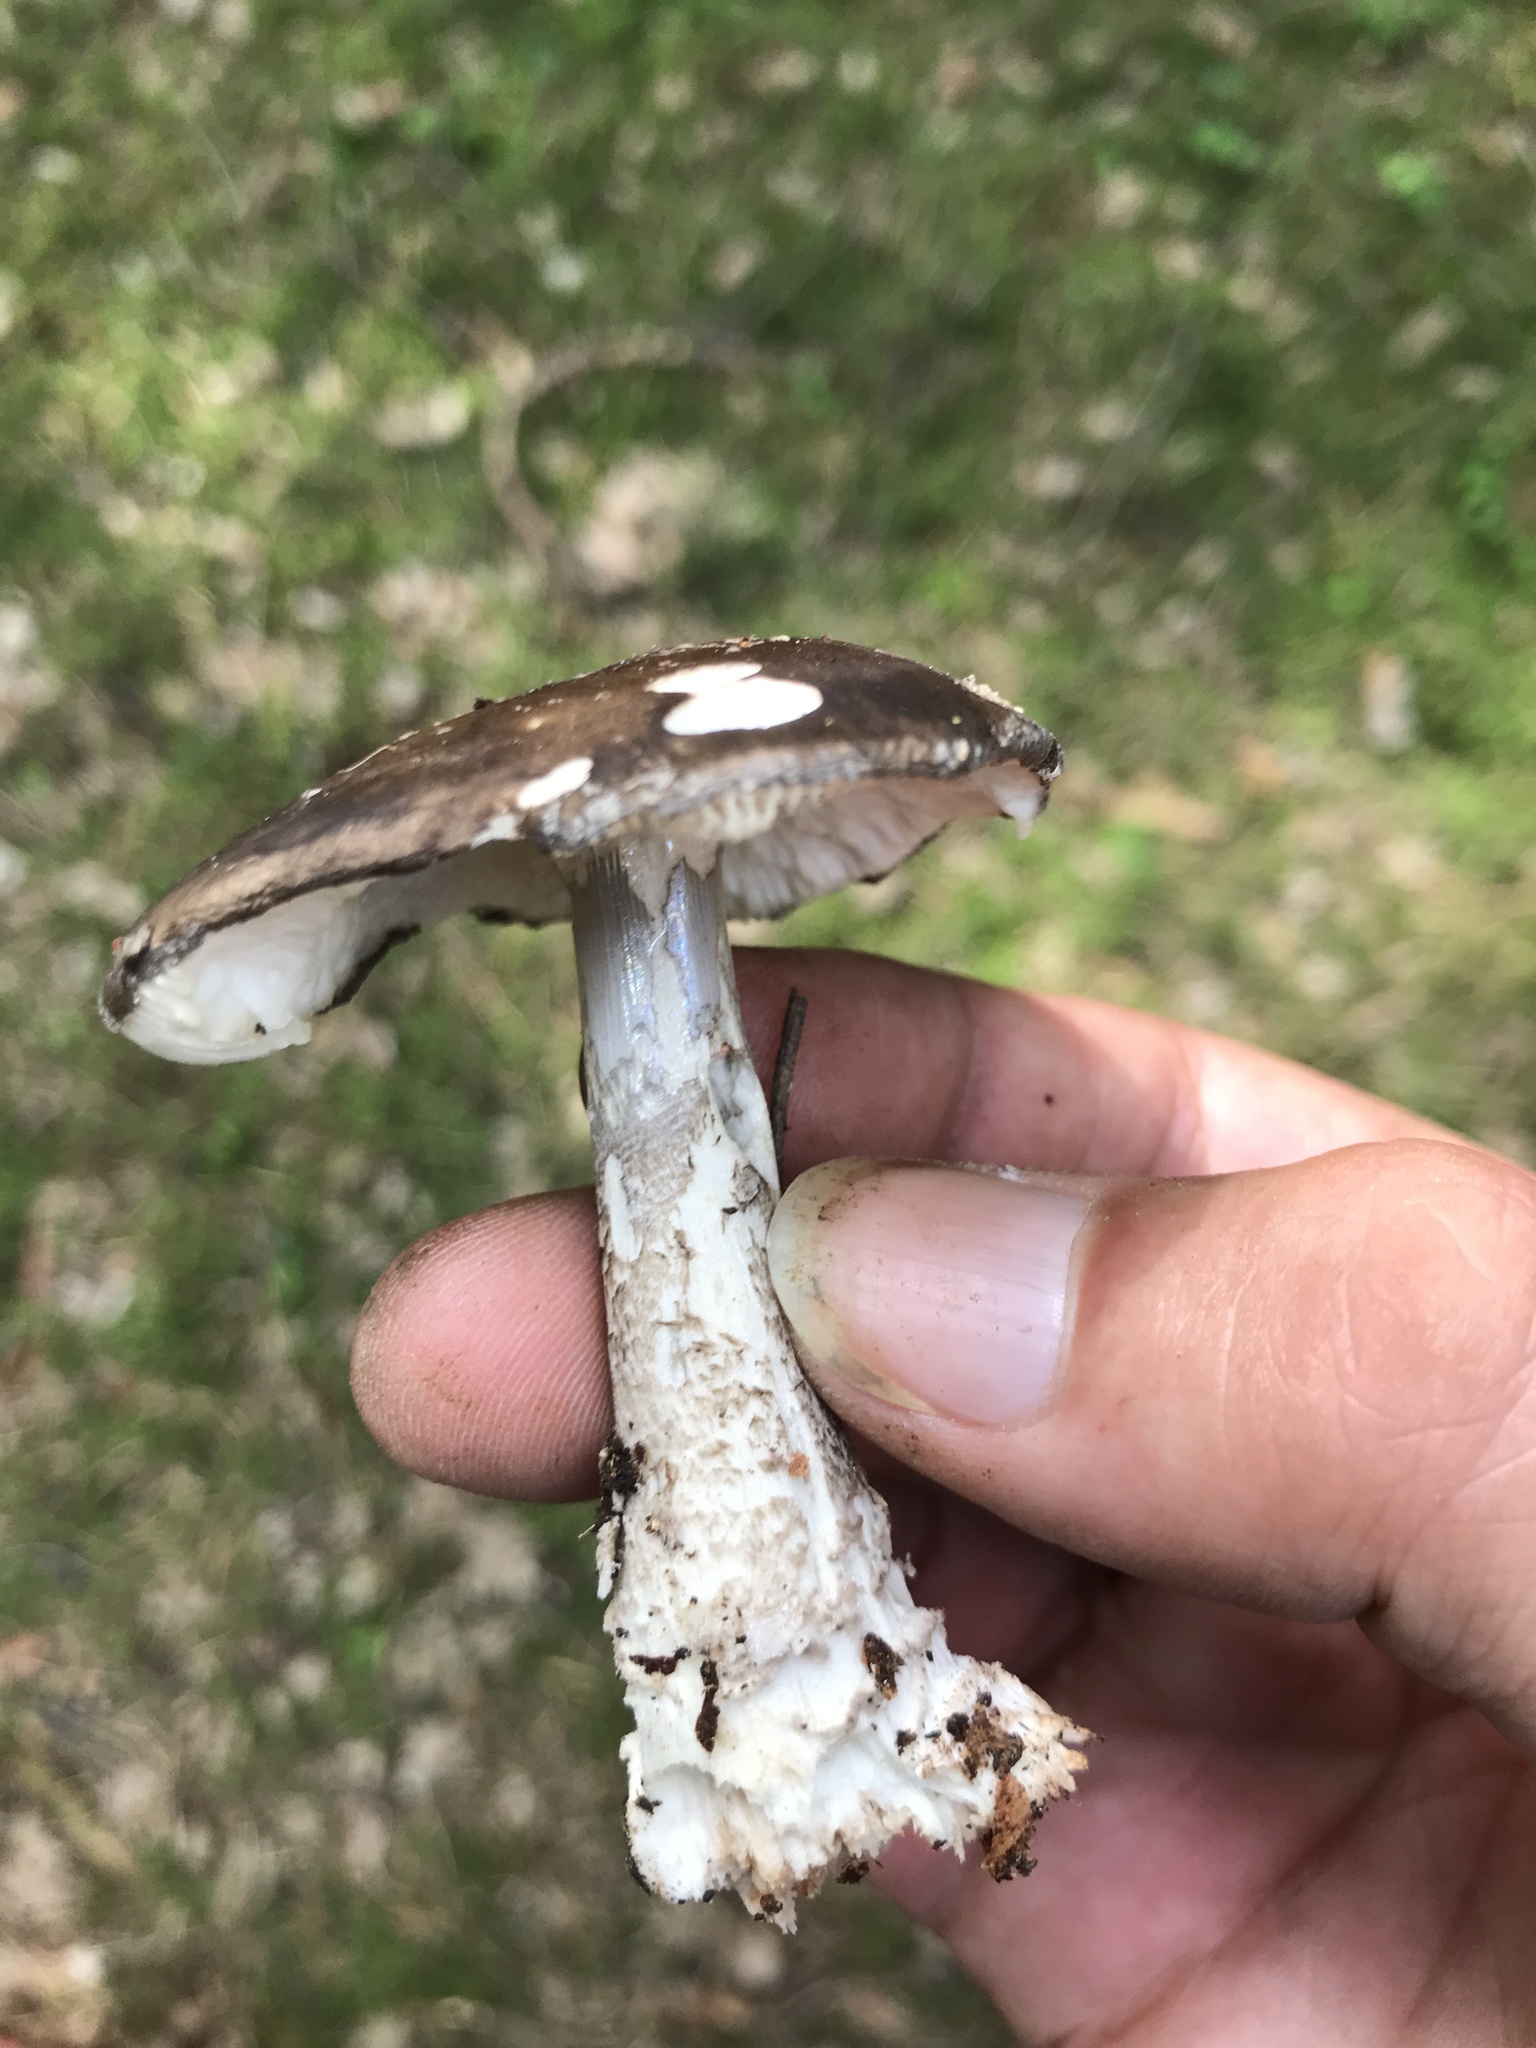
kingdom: Fungi
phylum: Basidiomycota
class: Agaricomycetes
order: Agaricales
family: Amanitaceae
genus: Amanita
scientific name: Amanita excelsa
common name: European false blusher
